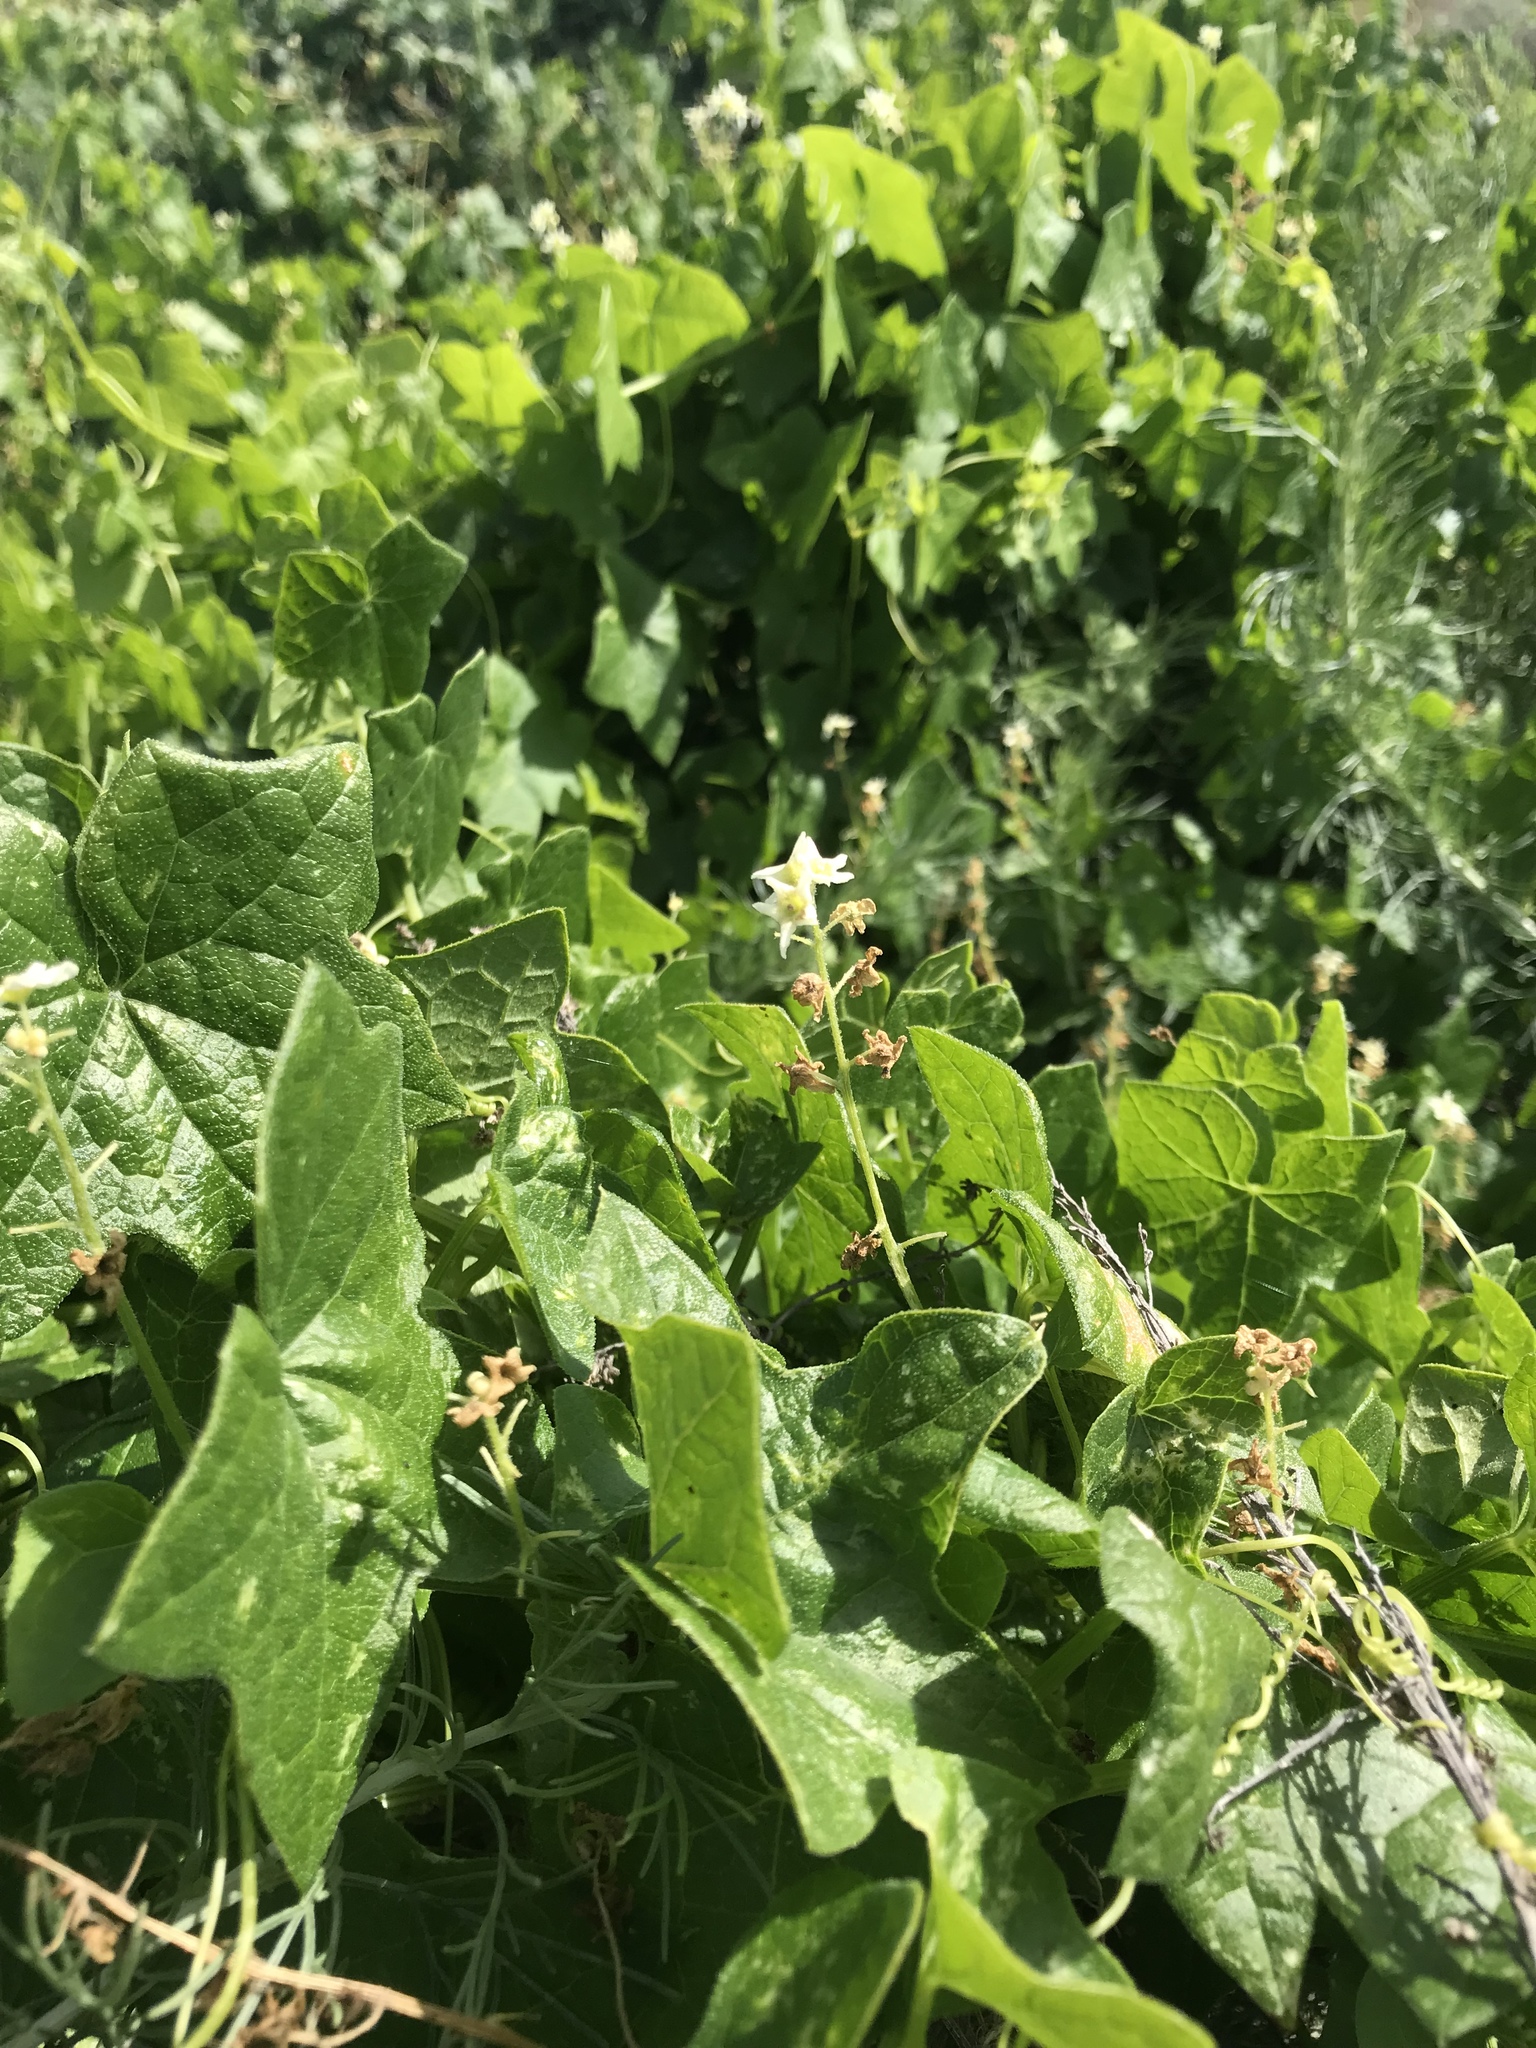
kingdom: Plantae
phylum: Tracheophyta
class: Magnoliopsida
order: Cucurbitales
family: Cucurbitaceae
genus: Marah
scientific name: Marah fabacea
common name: California manroot
